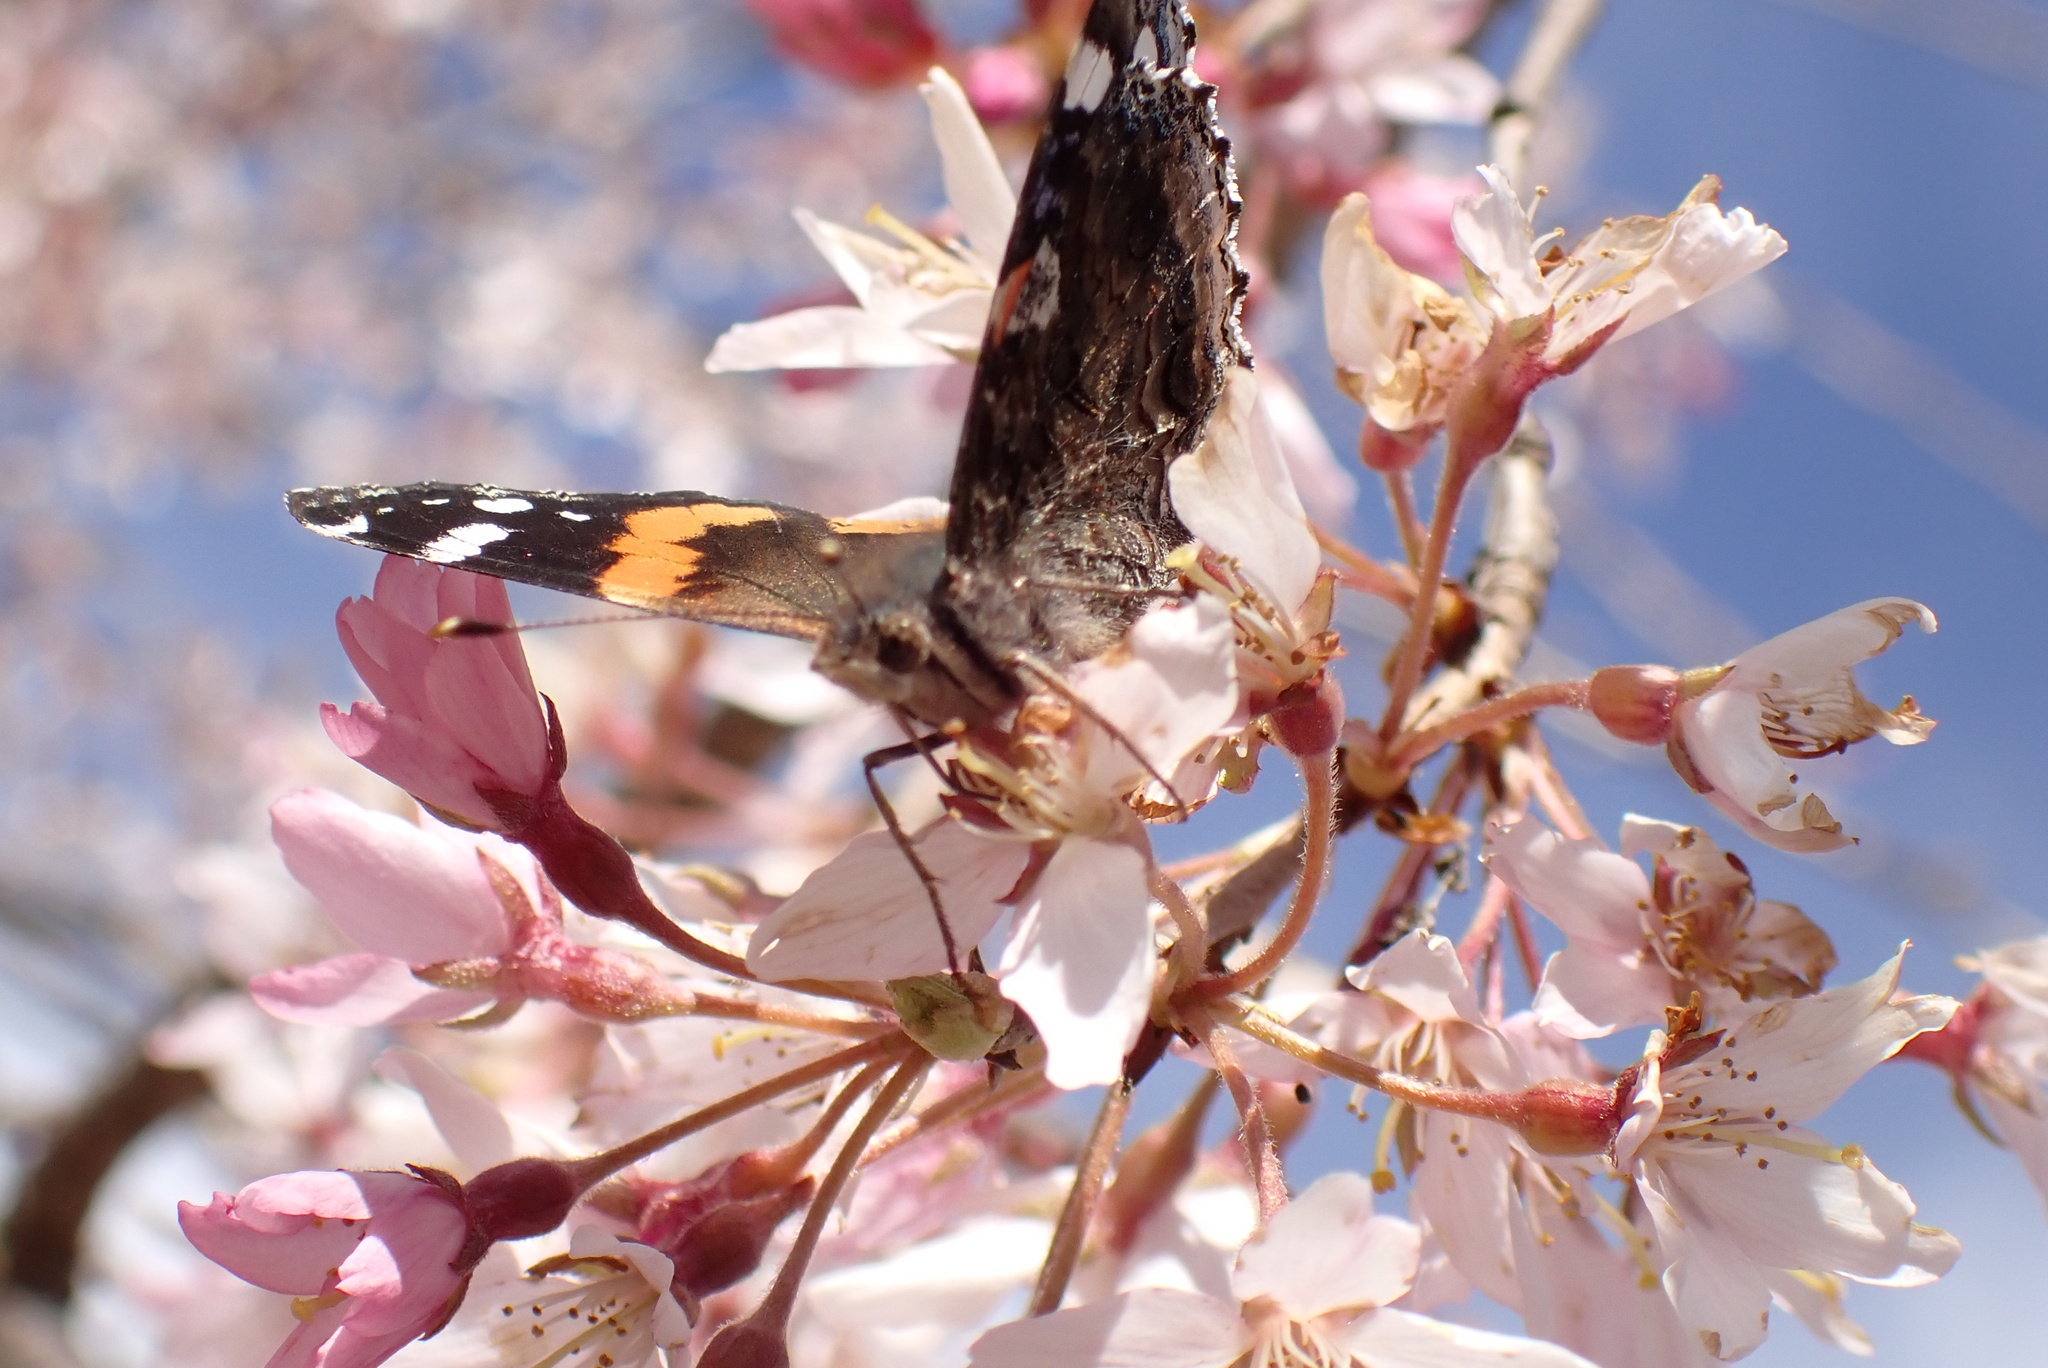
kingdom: Animalia
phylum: Arthropoda
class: Insecta
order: Lepidoptera
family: Nymphalidae
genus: Vanessa
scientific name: Vanessa atalanta
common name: Red admiral
